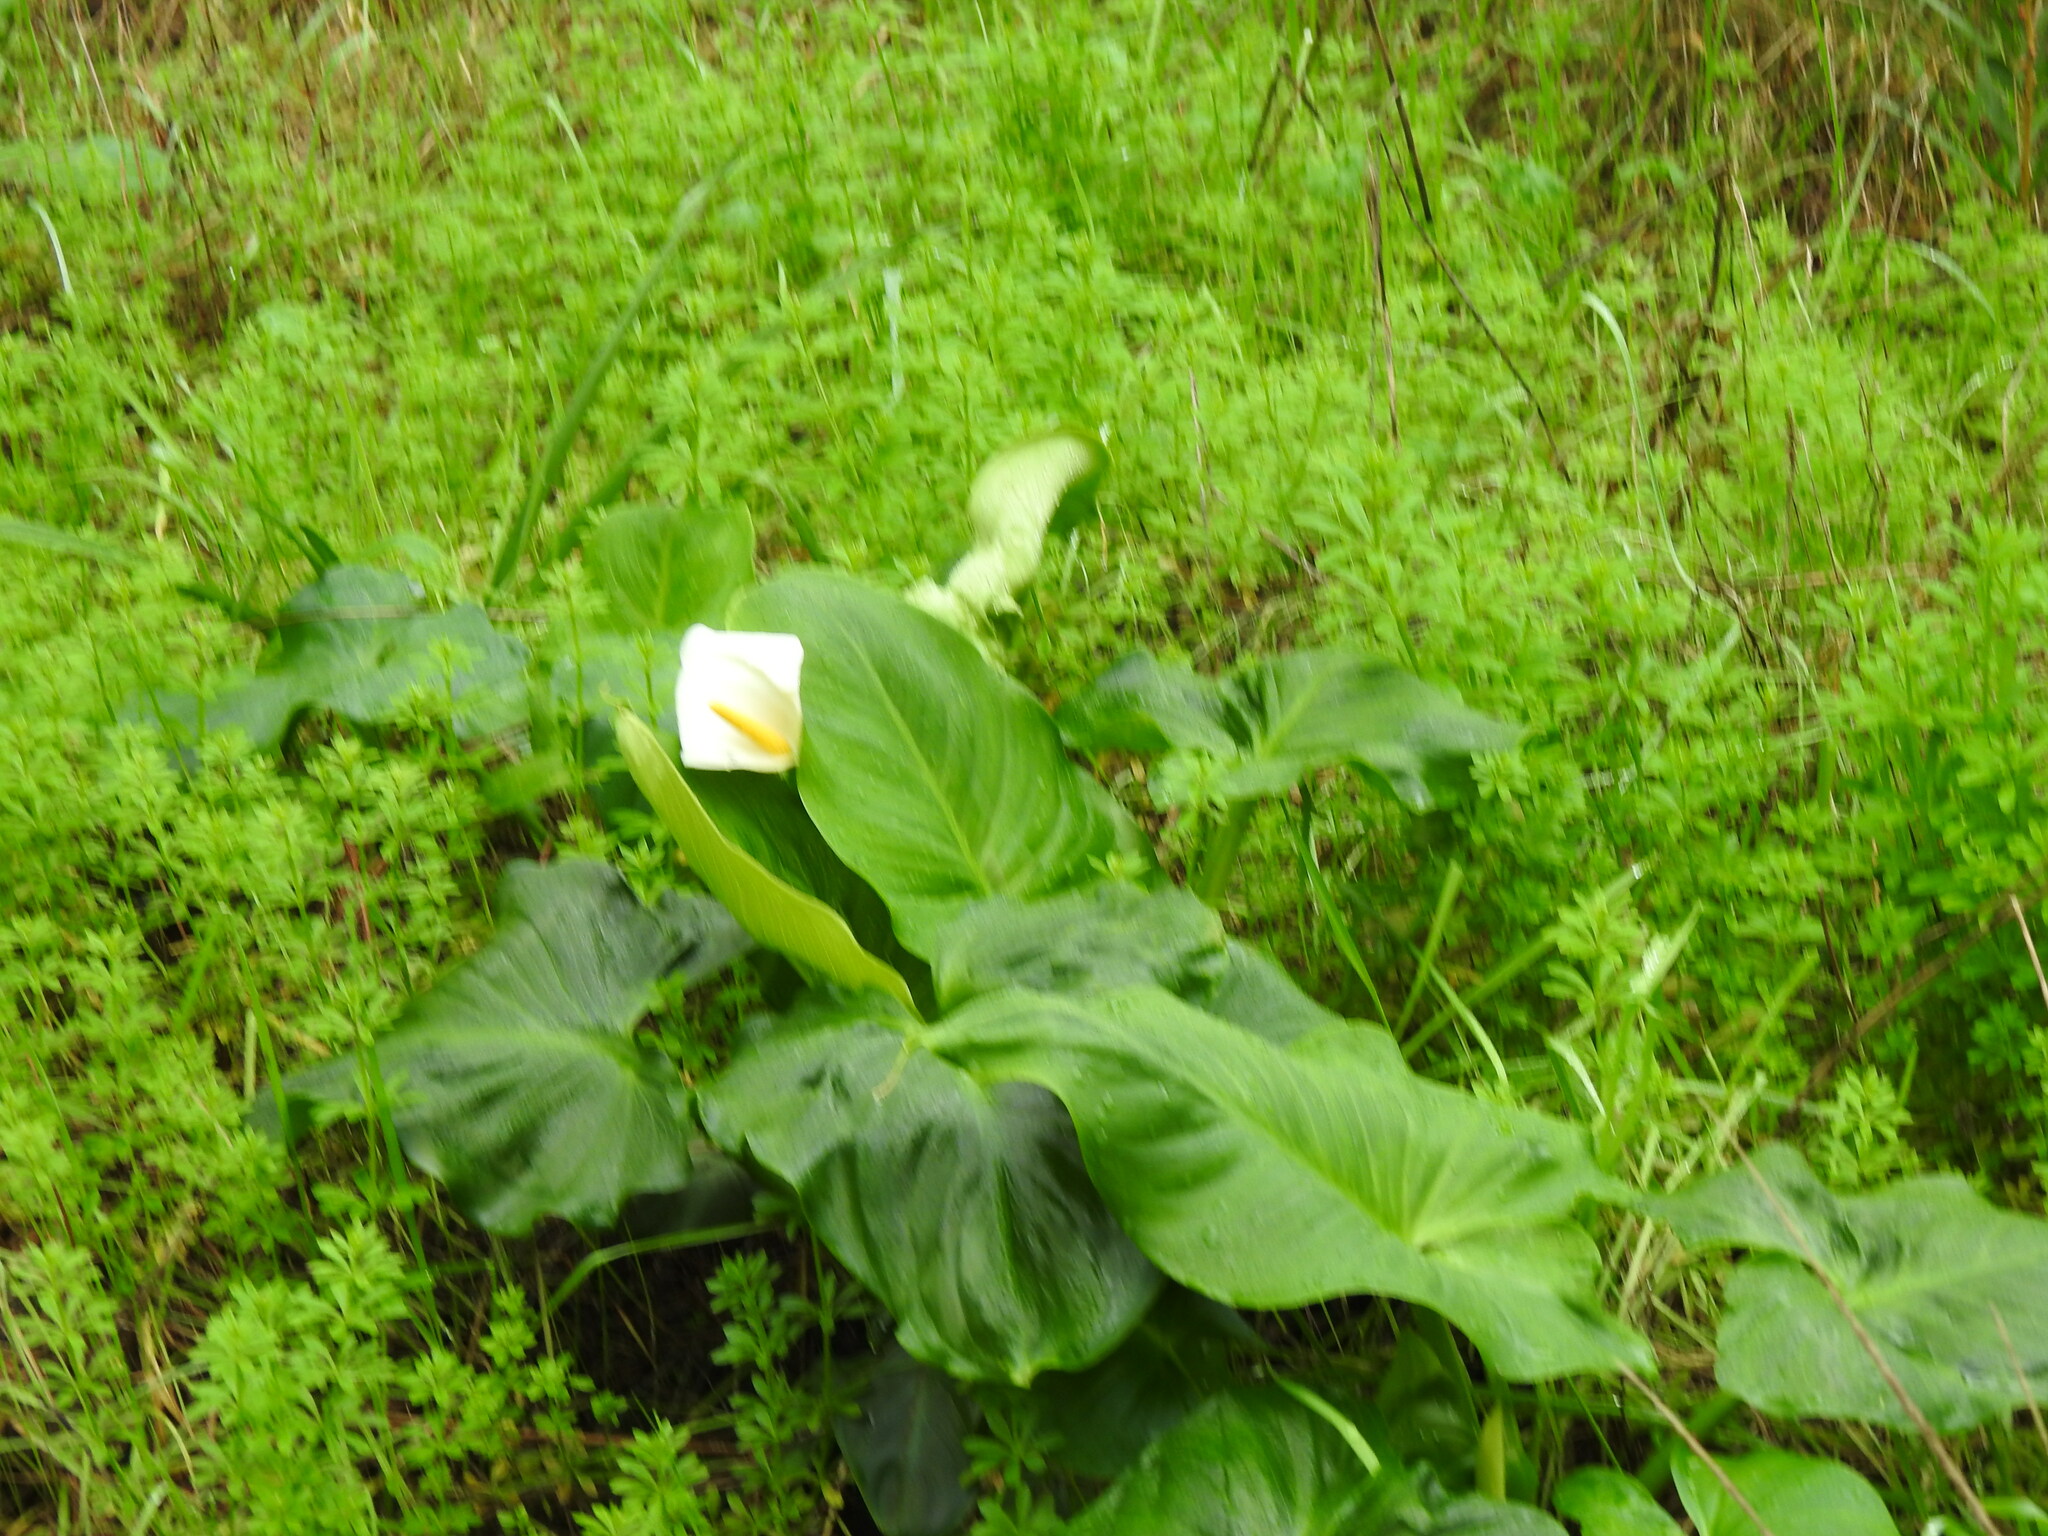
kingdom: Plantae
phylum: Tracheophyta
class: Liliopsida
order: Alismatales
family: Araceae
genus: Zantedeschia
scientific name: Zantedeschia aethiopica
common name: Altar-lily
